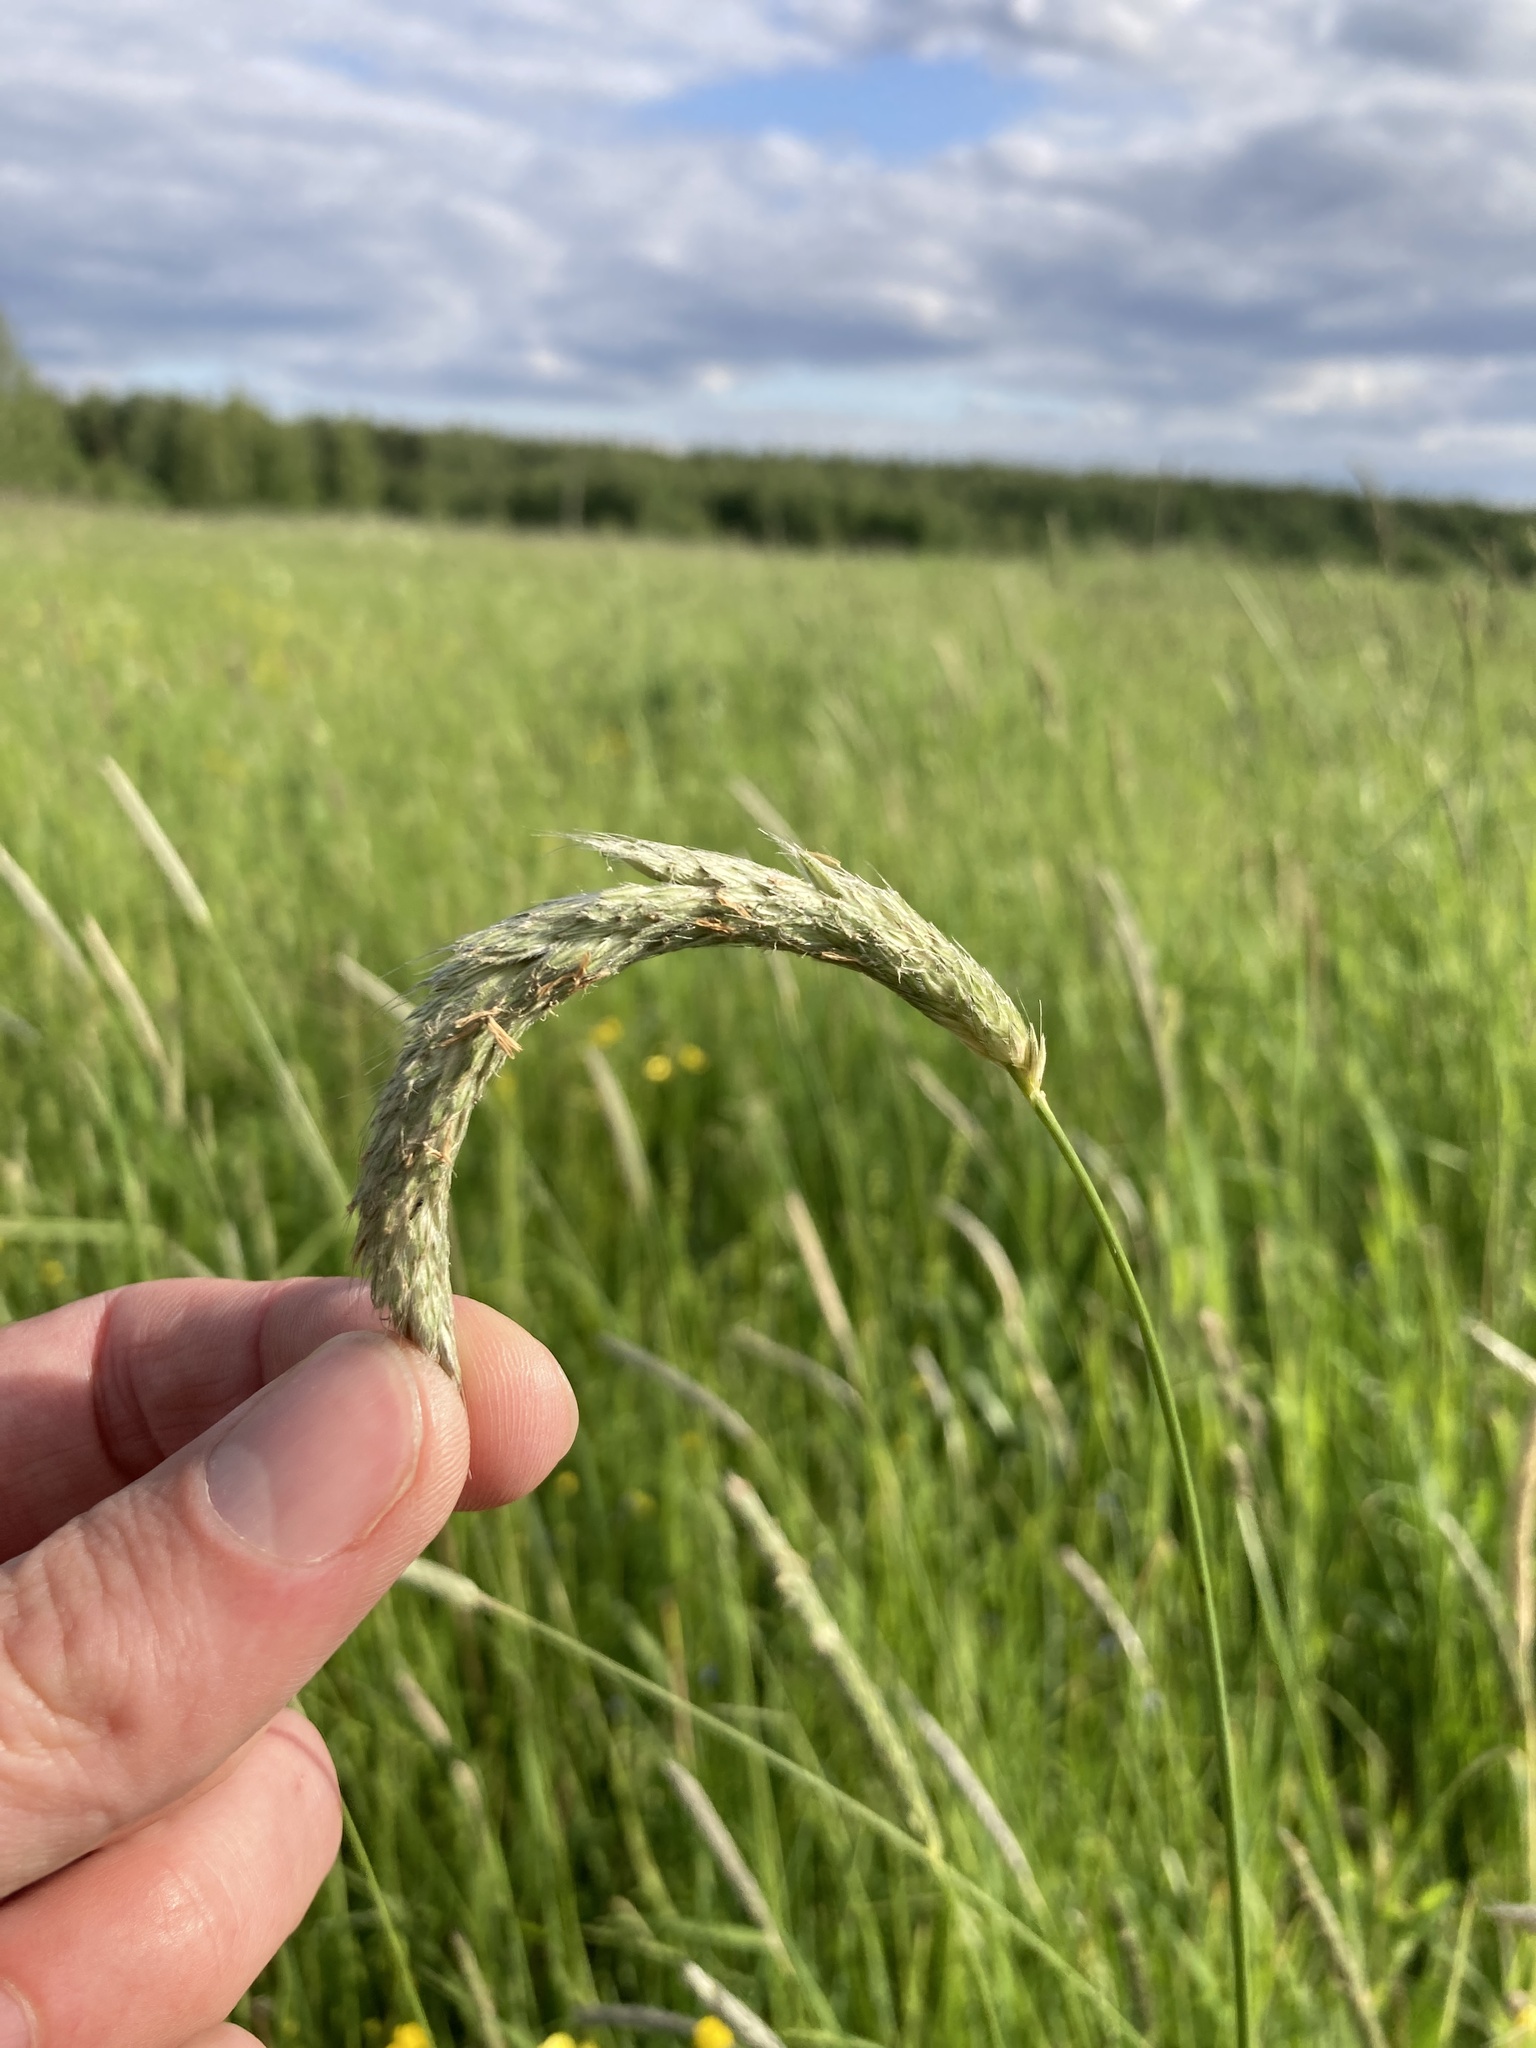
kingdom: Plantae
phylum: Tracheophyta
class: Liliopsida
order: Poales
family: Poaceae
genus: Alopecurus
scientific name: Alopecurus pratensis
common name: Meadow foxtail
